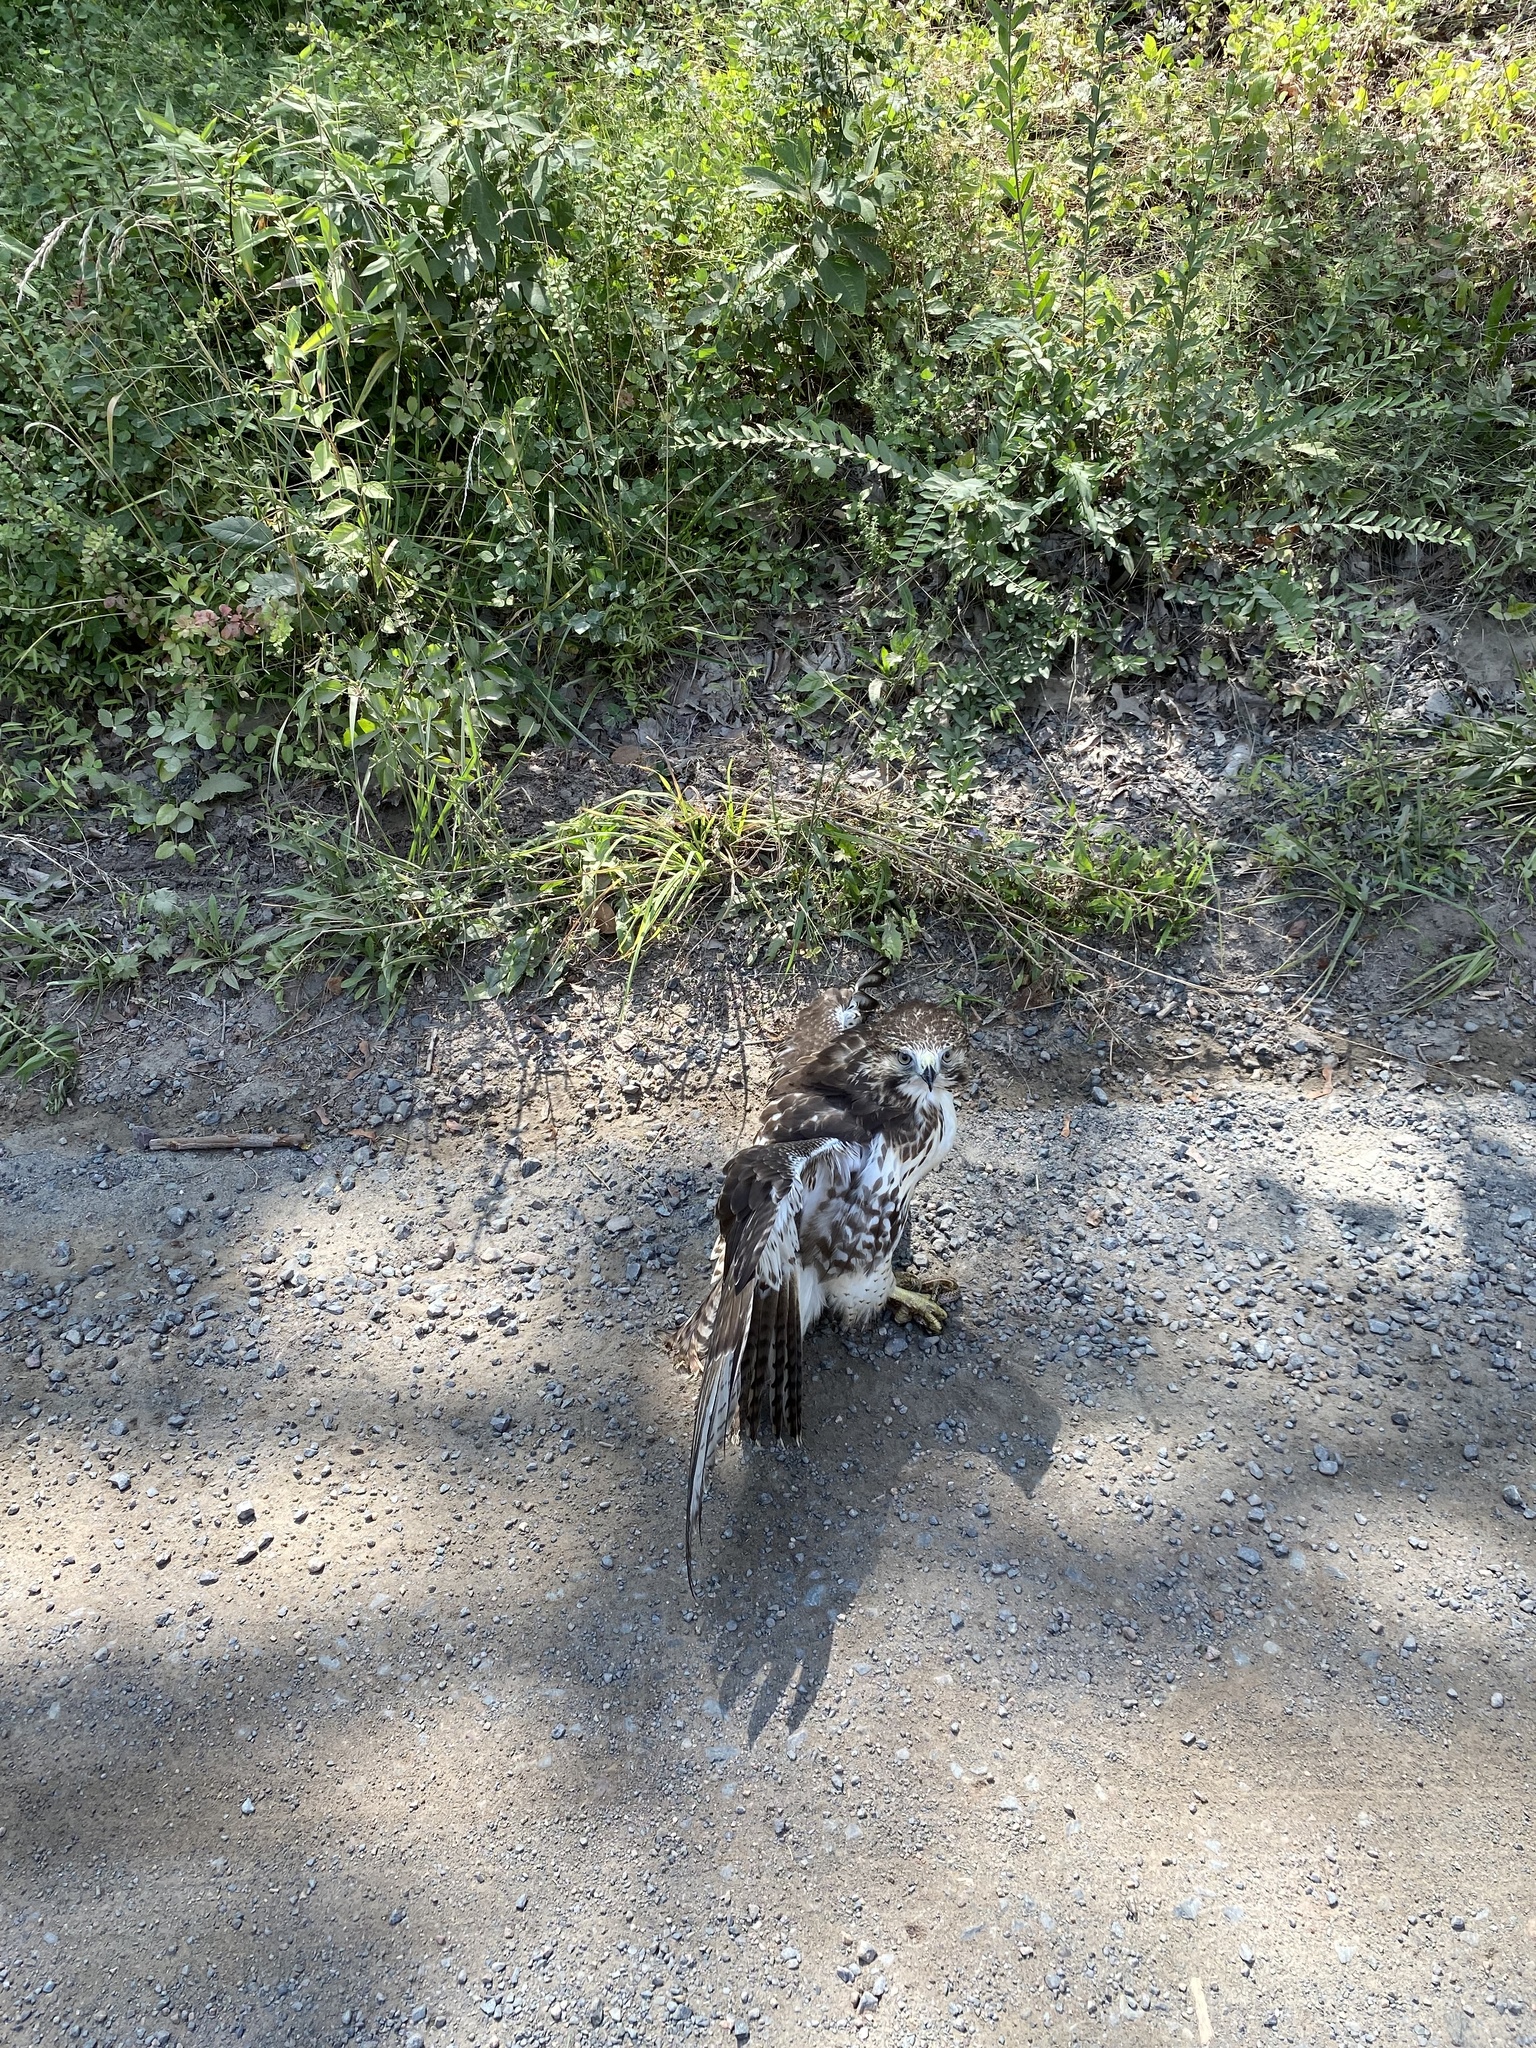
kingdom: Animalia
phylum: Chordata
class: Aves
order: Accipitriformes
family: Accipitridae
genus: Buteo
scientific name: Buteo jamaicensis
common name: Red-tailed hawk
